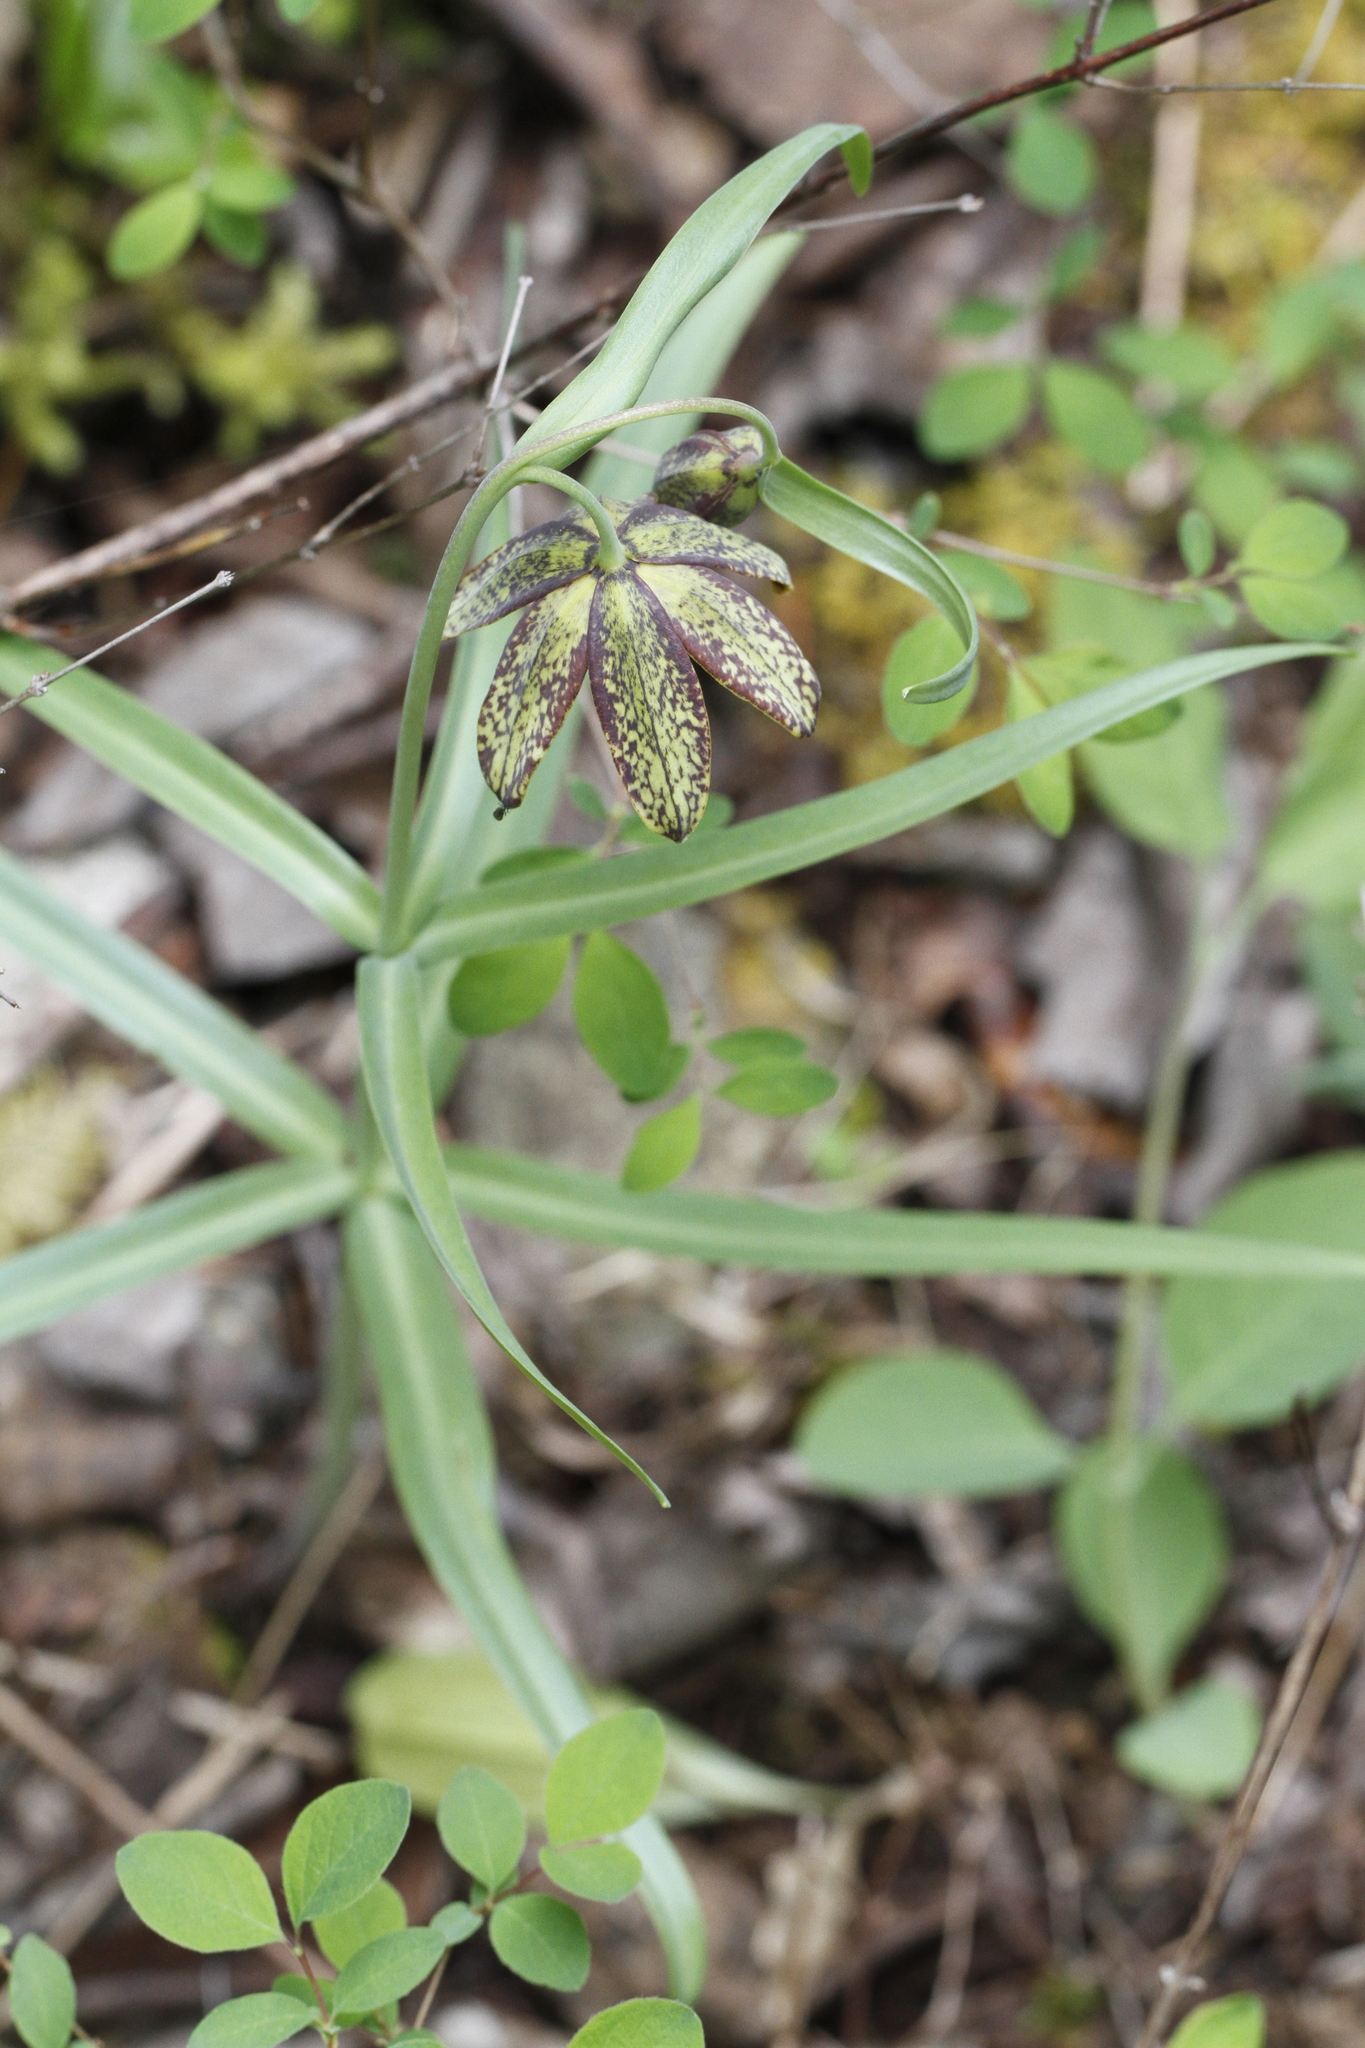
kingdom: Plantae
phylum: Tracheophyta
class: Liliopsida
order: Liliales
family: Liliaceae
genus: Fritillaria
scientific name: Fritillaria affinis
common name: Ojai fritillary
